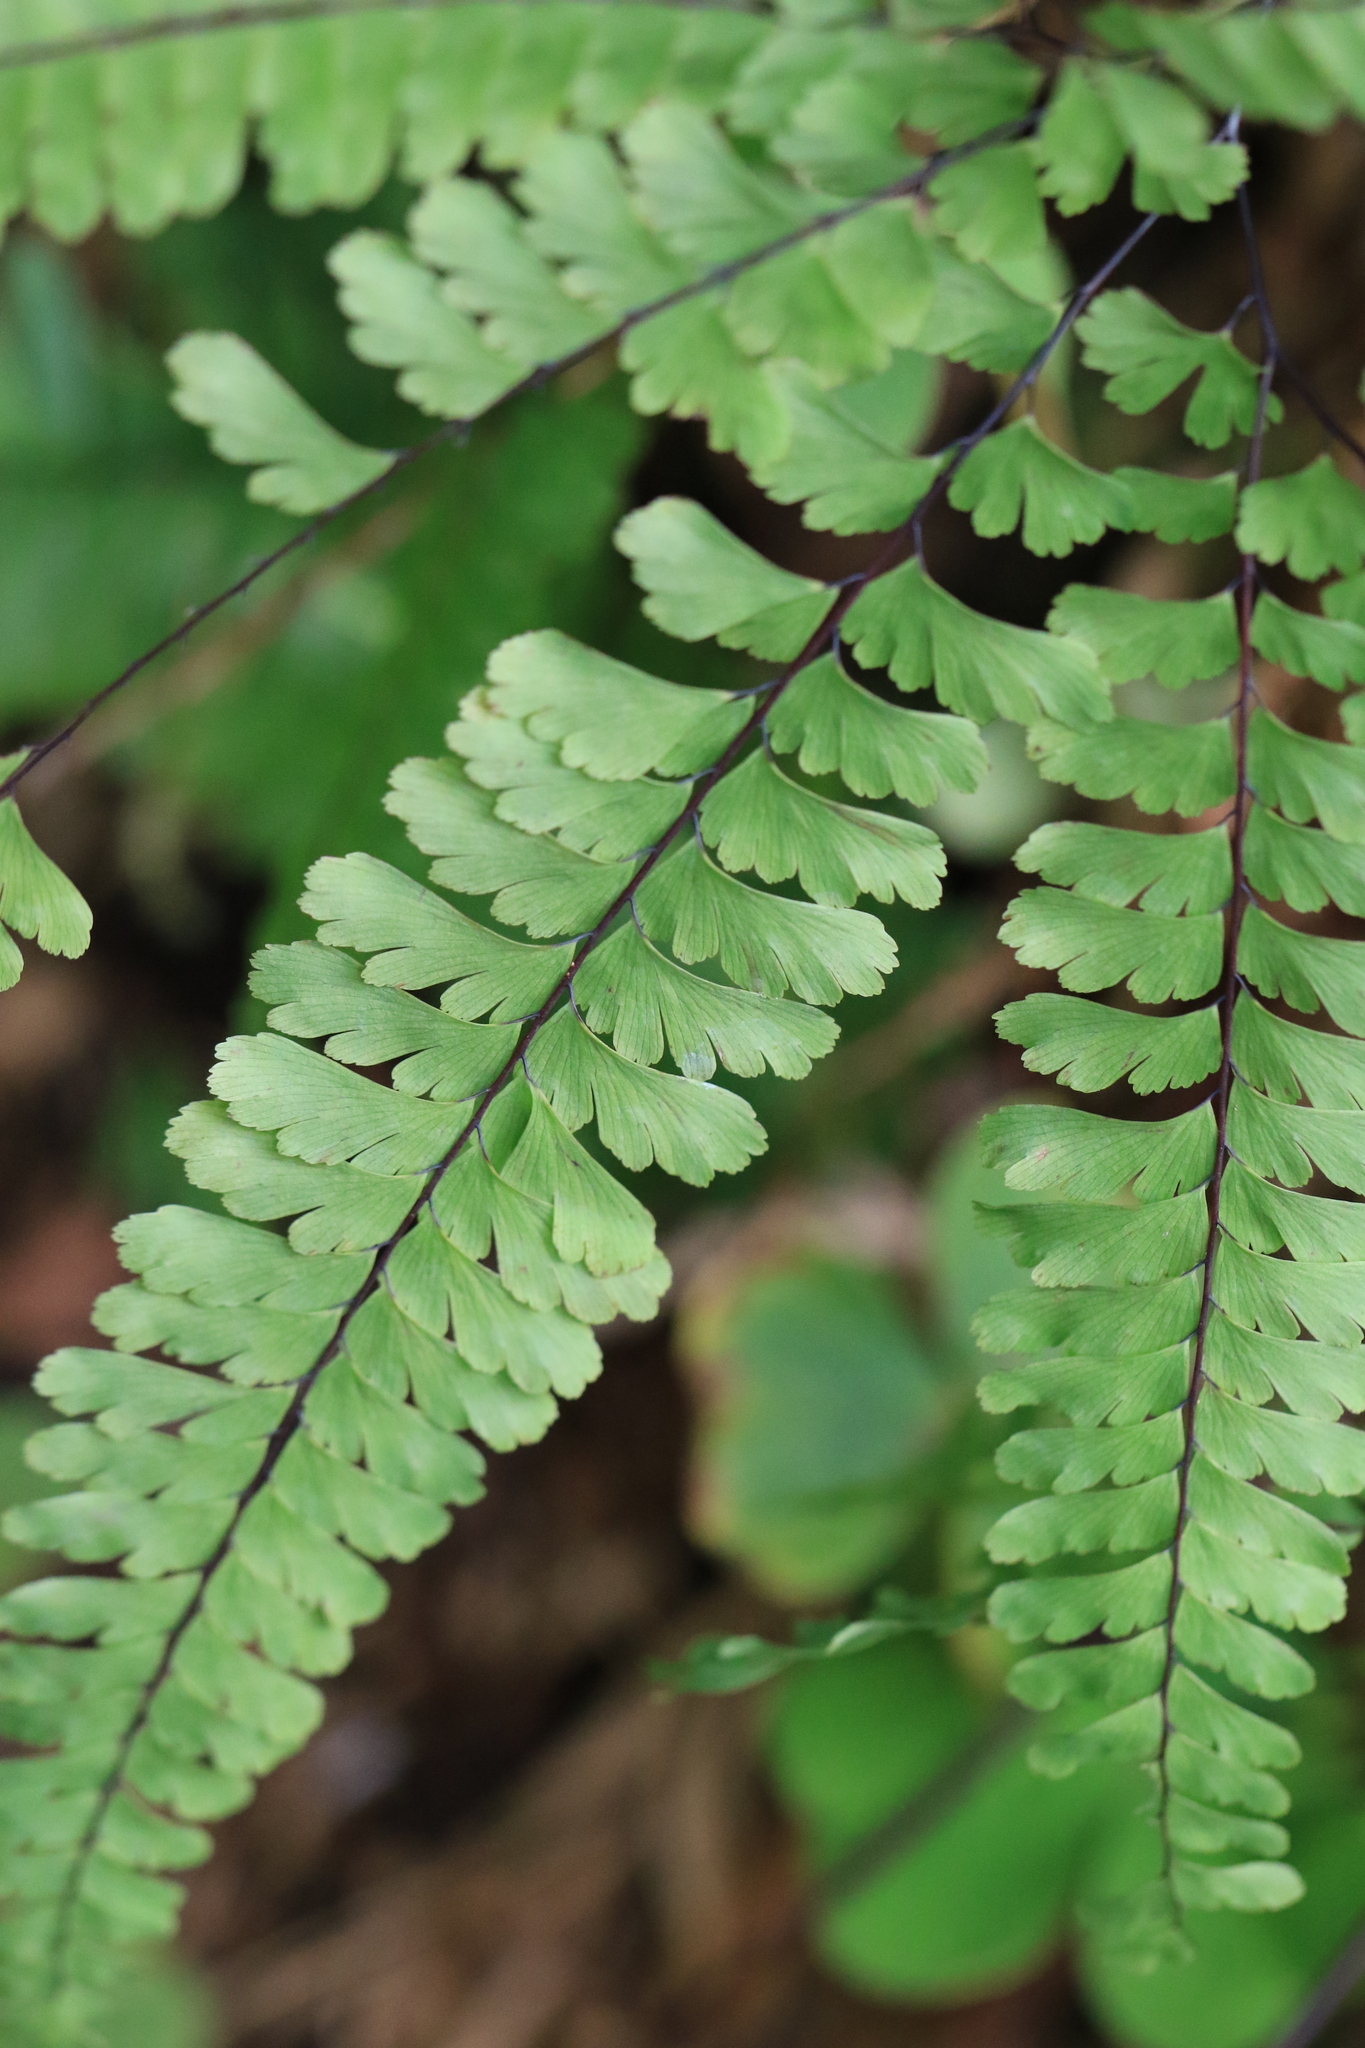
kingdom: Plantae
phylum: Tracheophyta
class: Polypodiopsida
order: Polypodiales
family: Pteridaceae
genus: Adiantum
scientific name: Adiantum aleuticum
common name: Aleutian maidenhair fern
